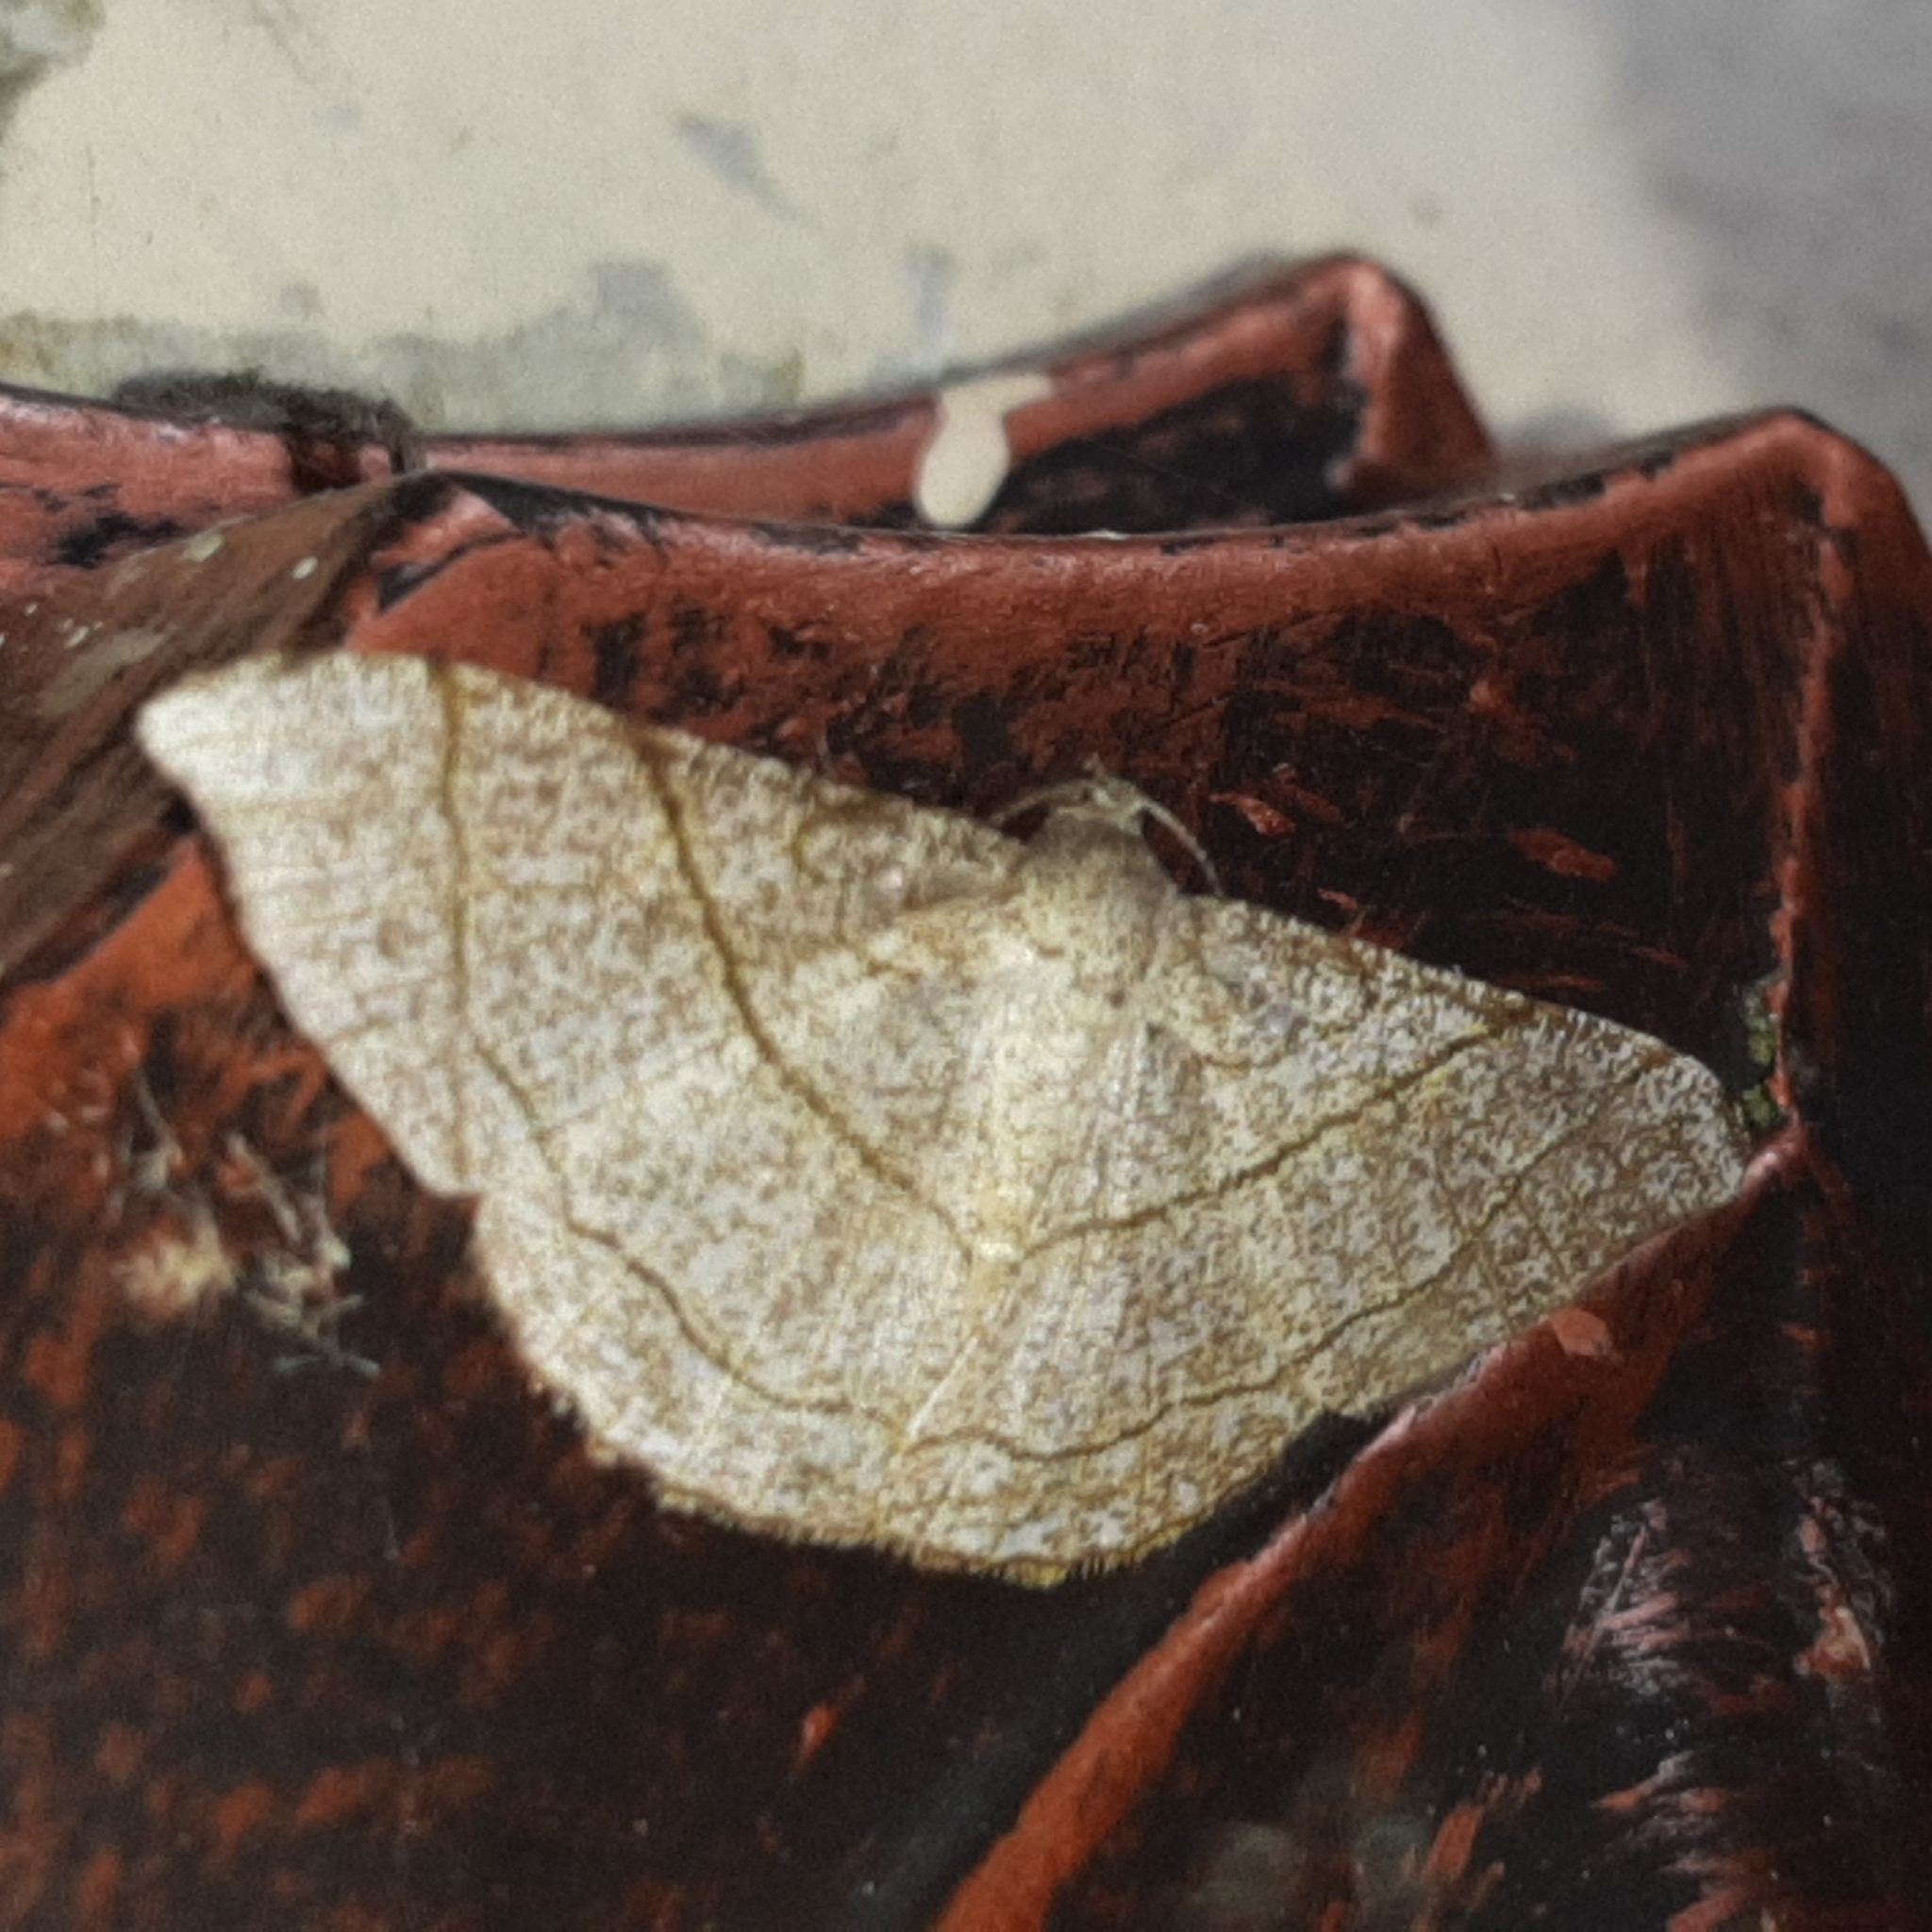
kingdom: Animalia
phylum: Arthropoda
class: Insecta
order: Lepidoptera
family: Geometridae
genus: Semiothisa
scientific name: Semiothisa divergentata
